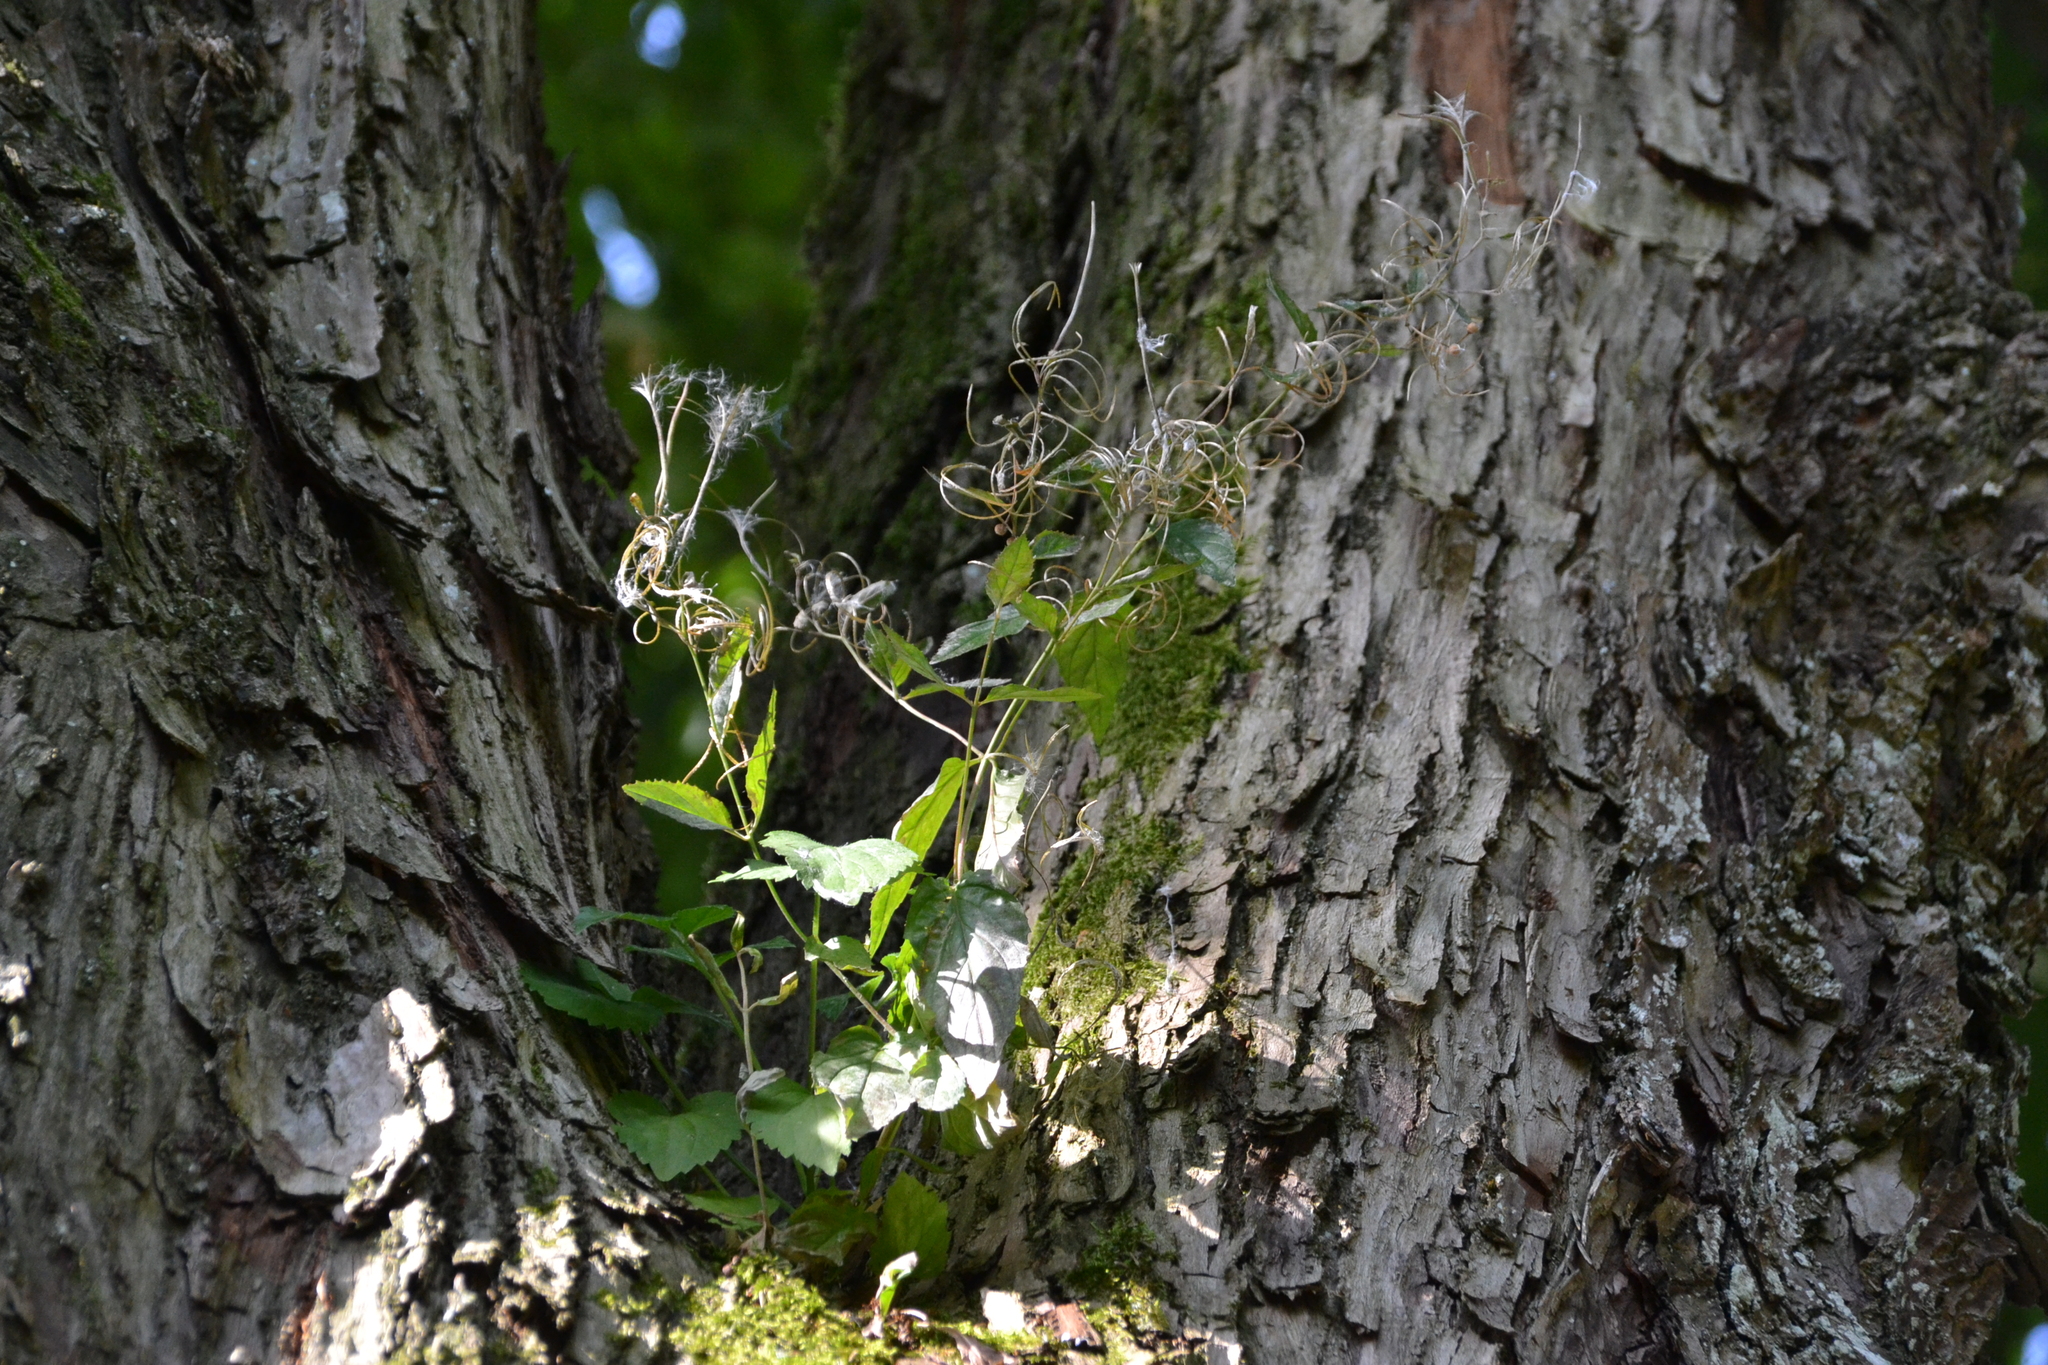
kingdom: Plantae
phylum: Tracheophyta
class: Magnoliopsida
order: Myrtales
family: Onagraceae
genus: Epilobium
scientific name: Epilobium montanum
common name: Broad-leaved willowherb
